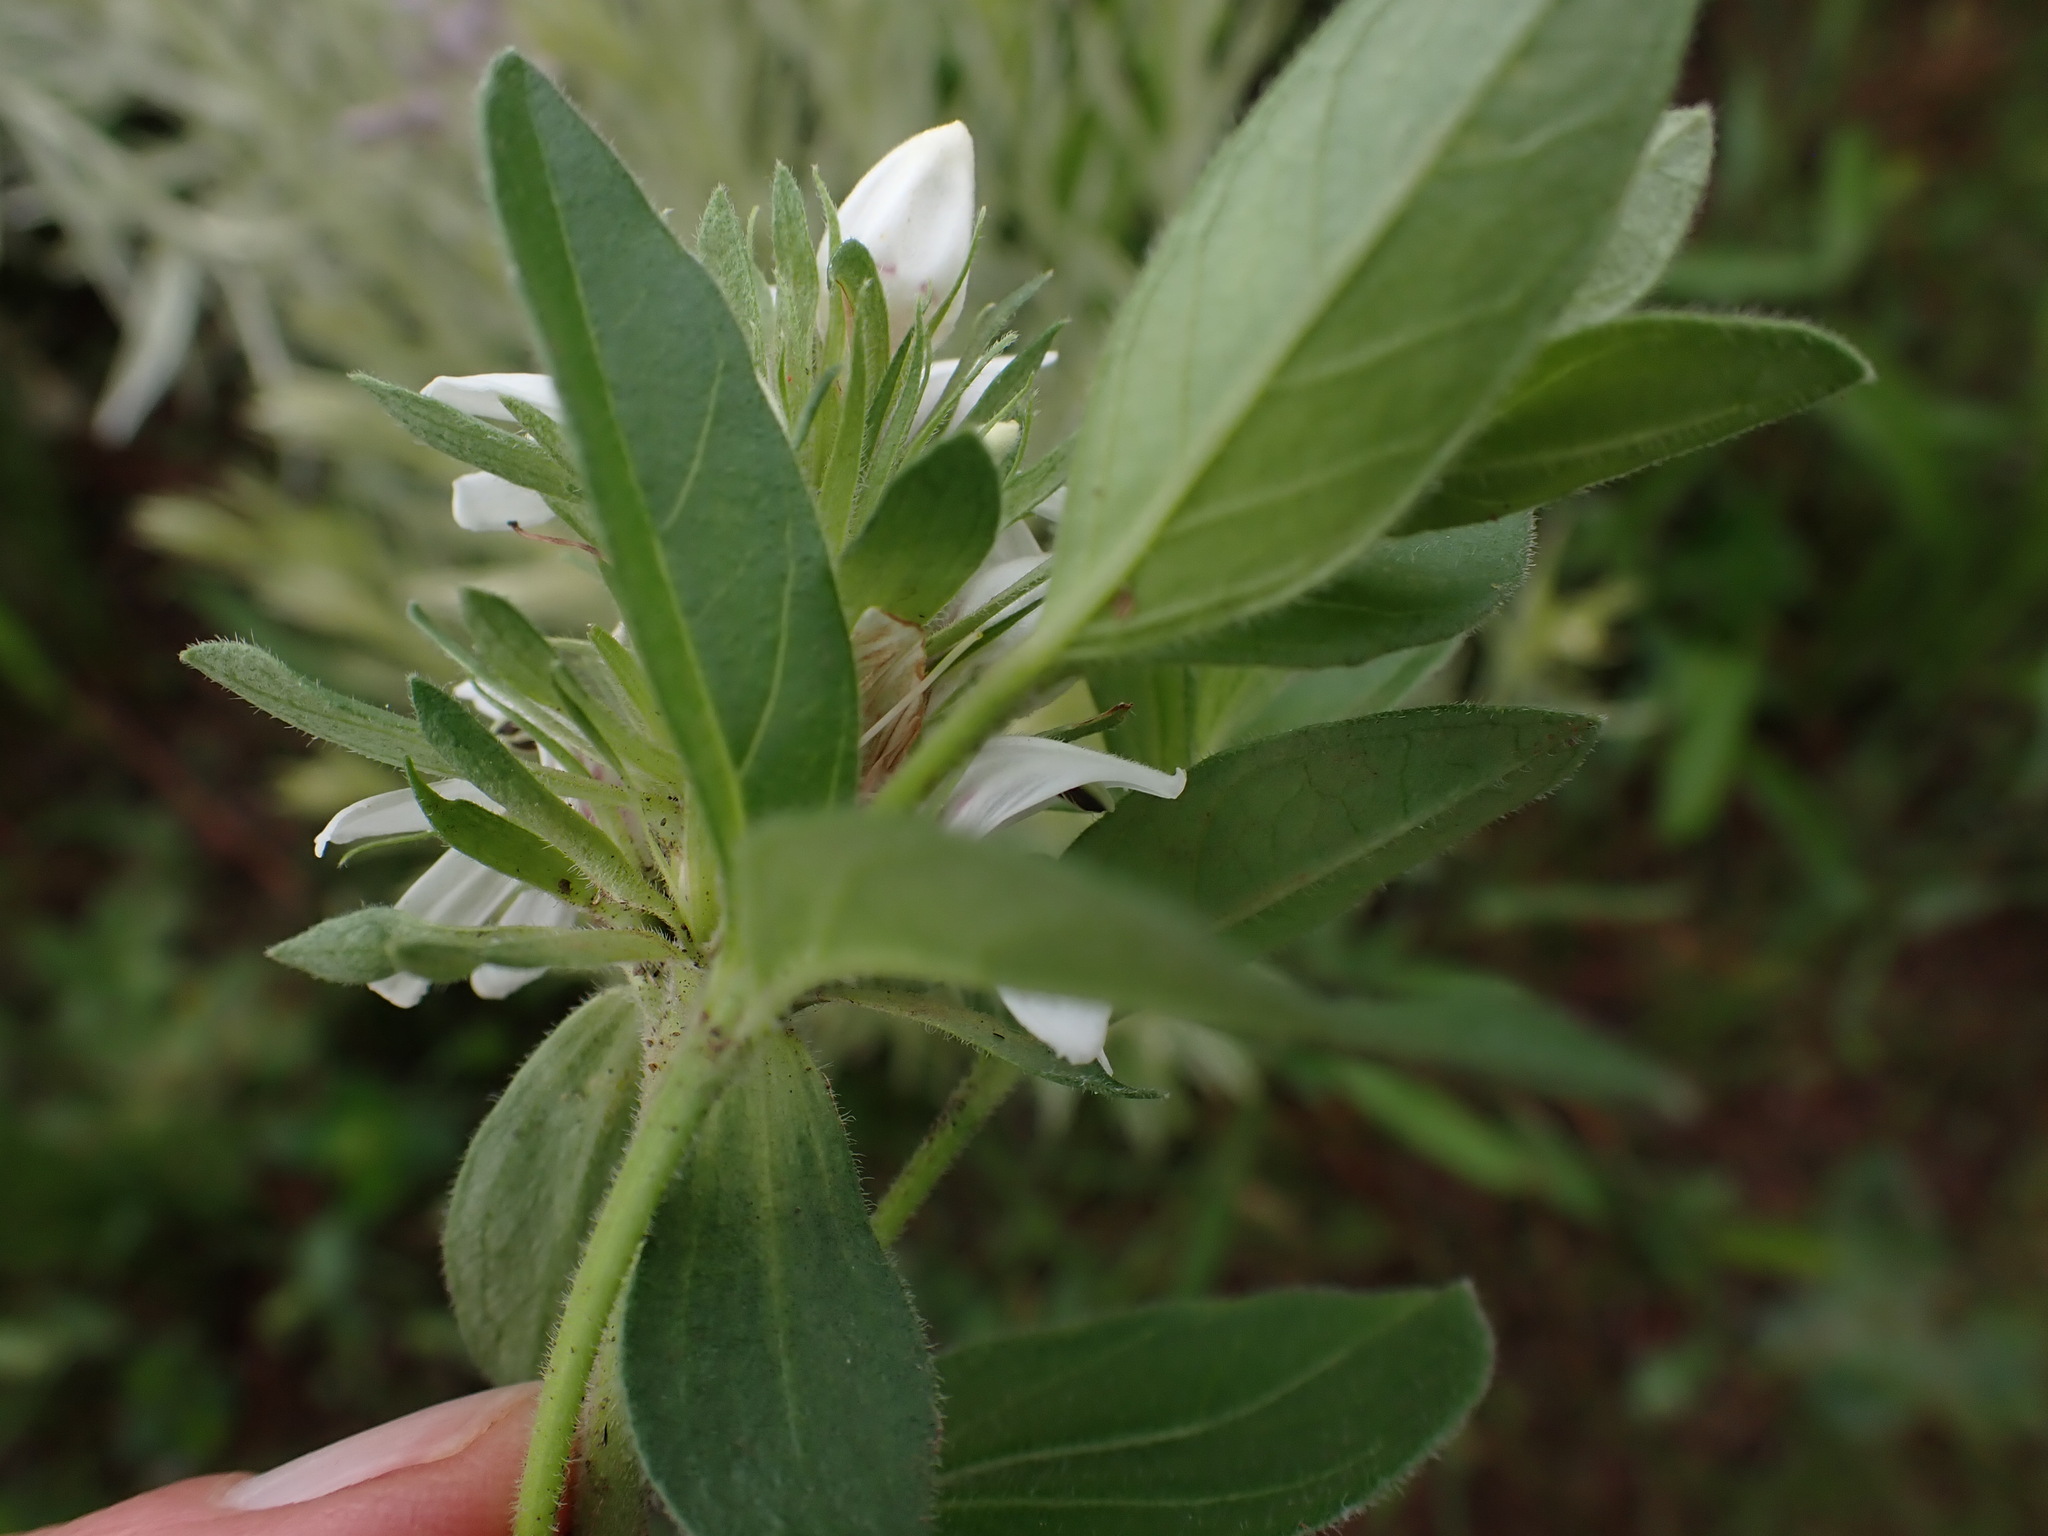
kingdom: Plantae
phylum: Tracheophyta
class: Magnoliopsida
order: Lamiales
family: Acanthaceae
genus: Justicia
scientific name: Justicia andromeda
